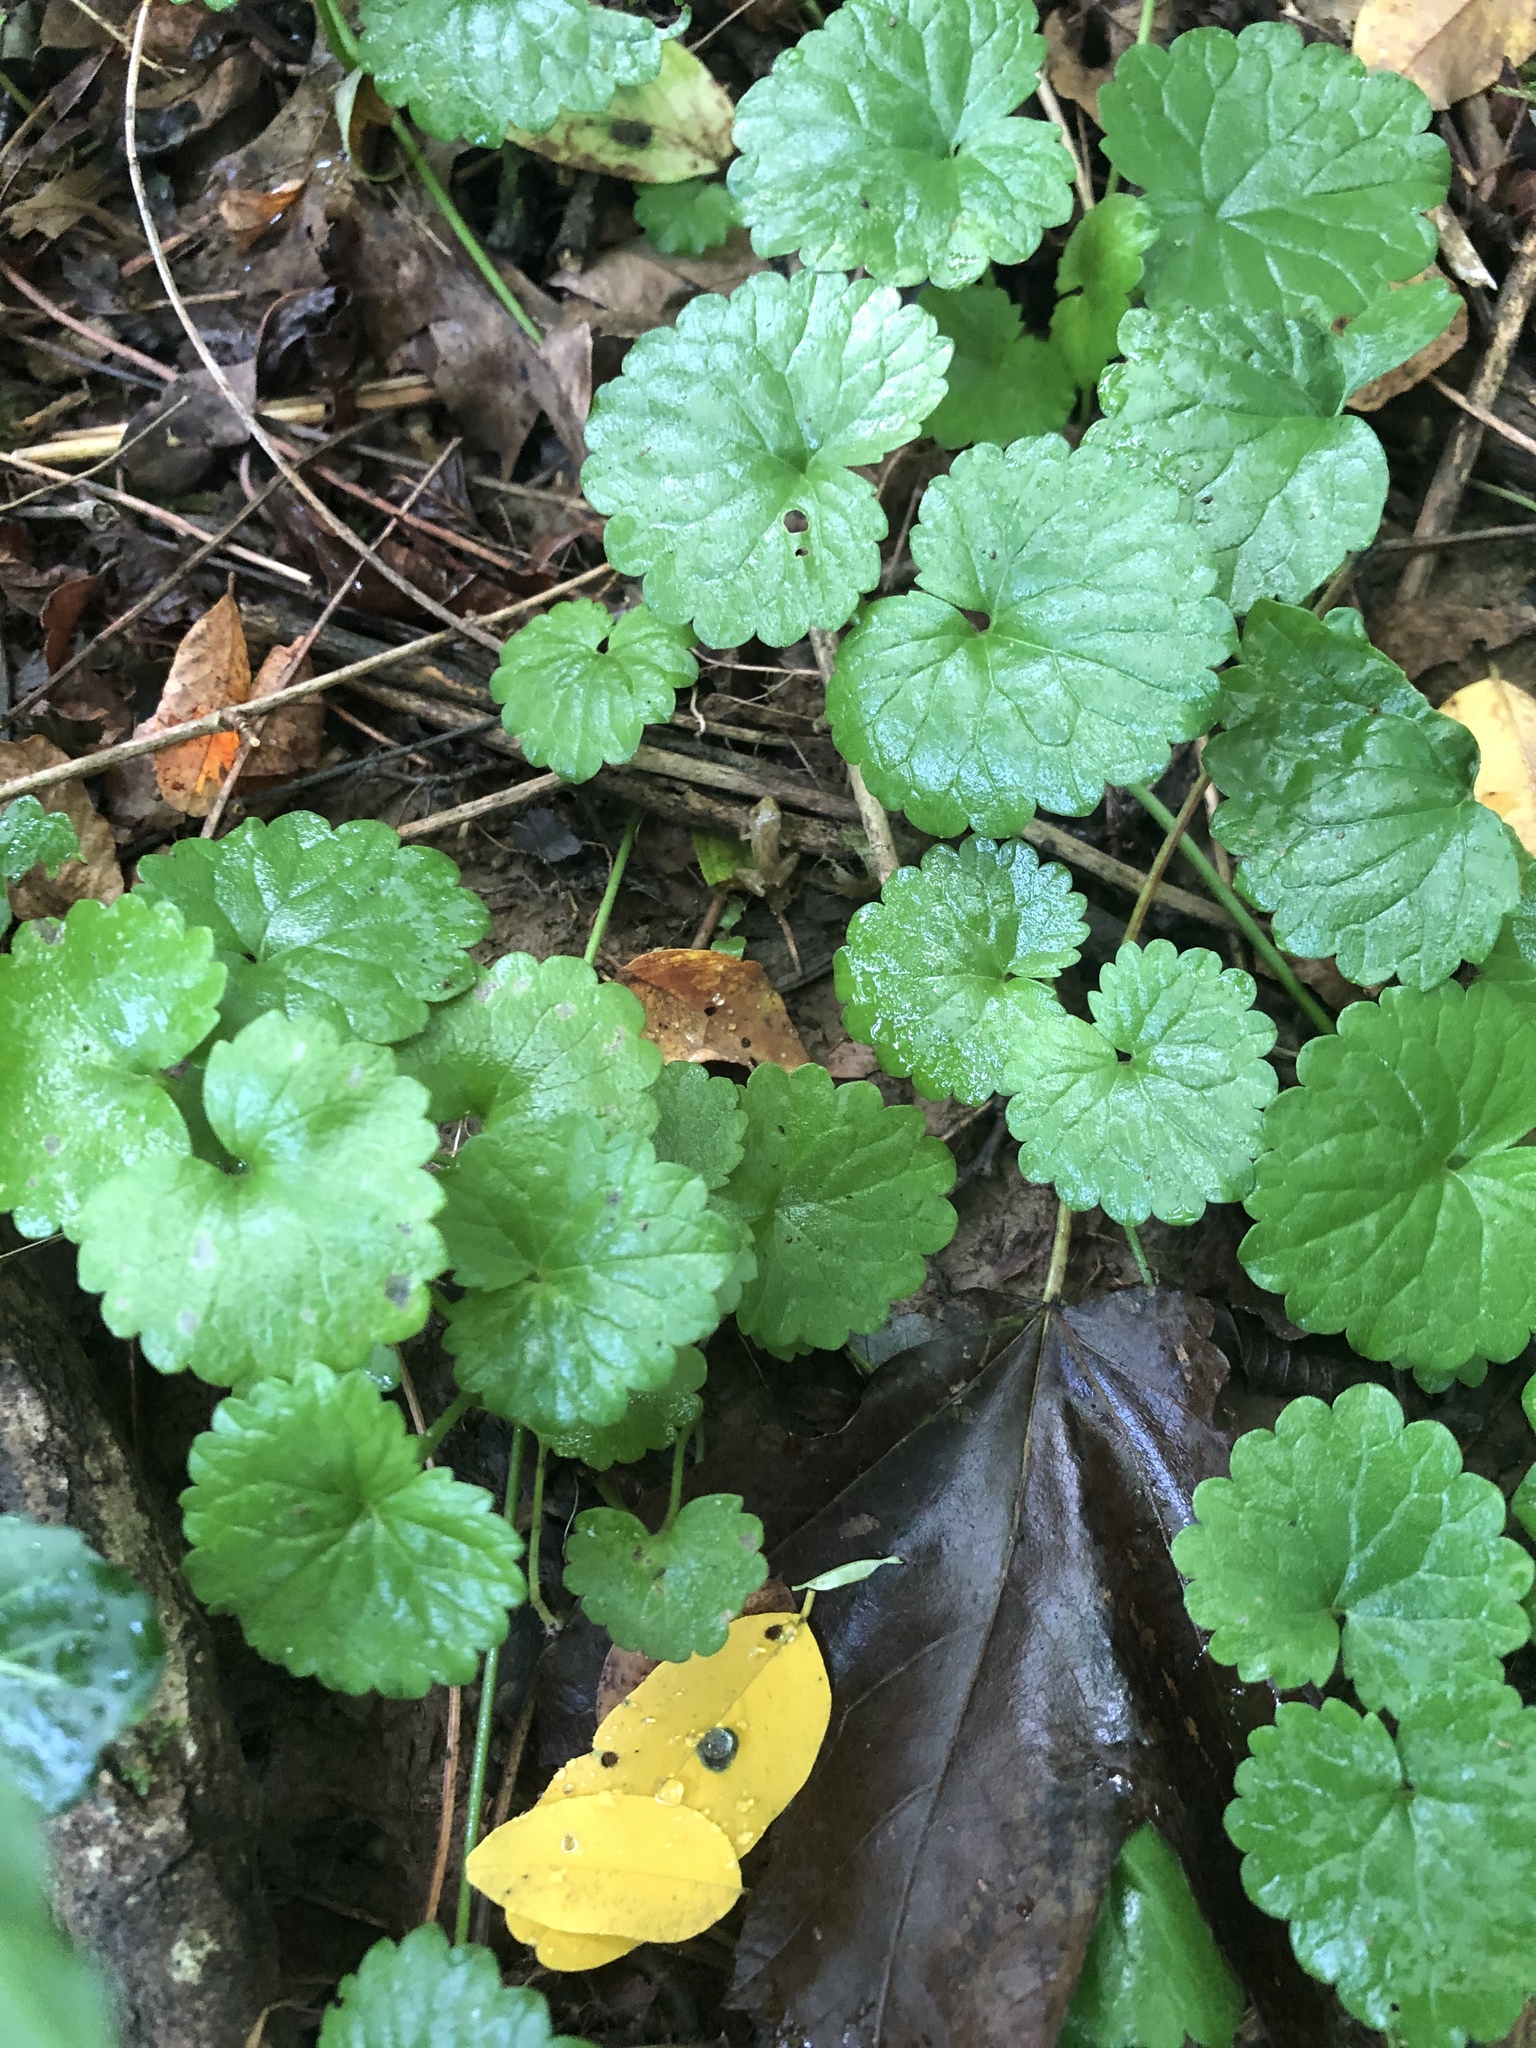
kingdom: Plantae
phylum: Tracheophyta
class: Magnoliopsida
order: Lamiales
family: Lamiaceae
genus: Glechoma
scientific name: Glechoma hederacea
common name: Ground ivy
